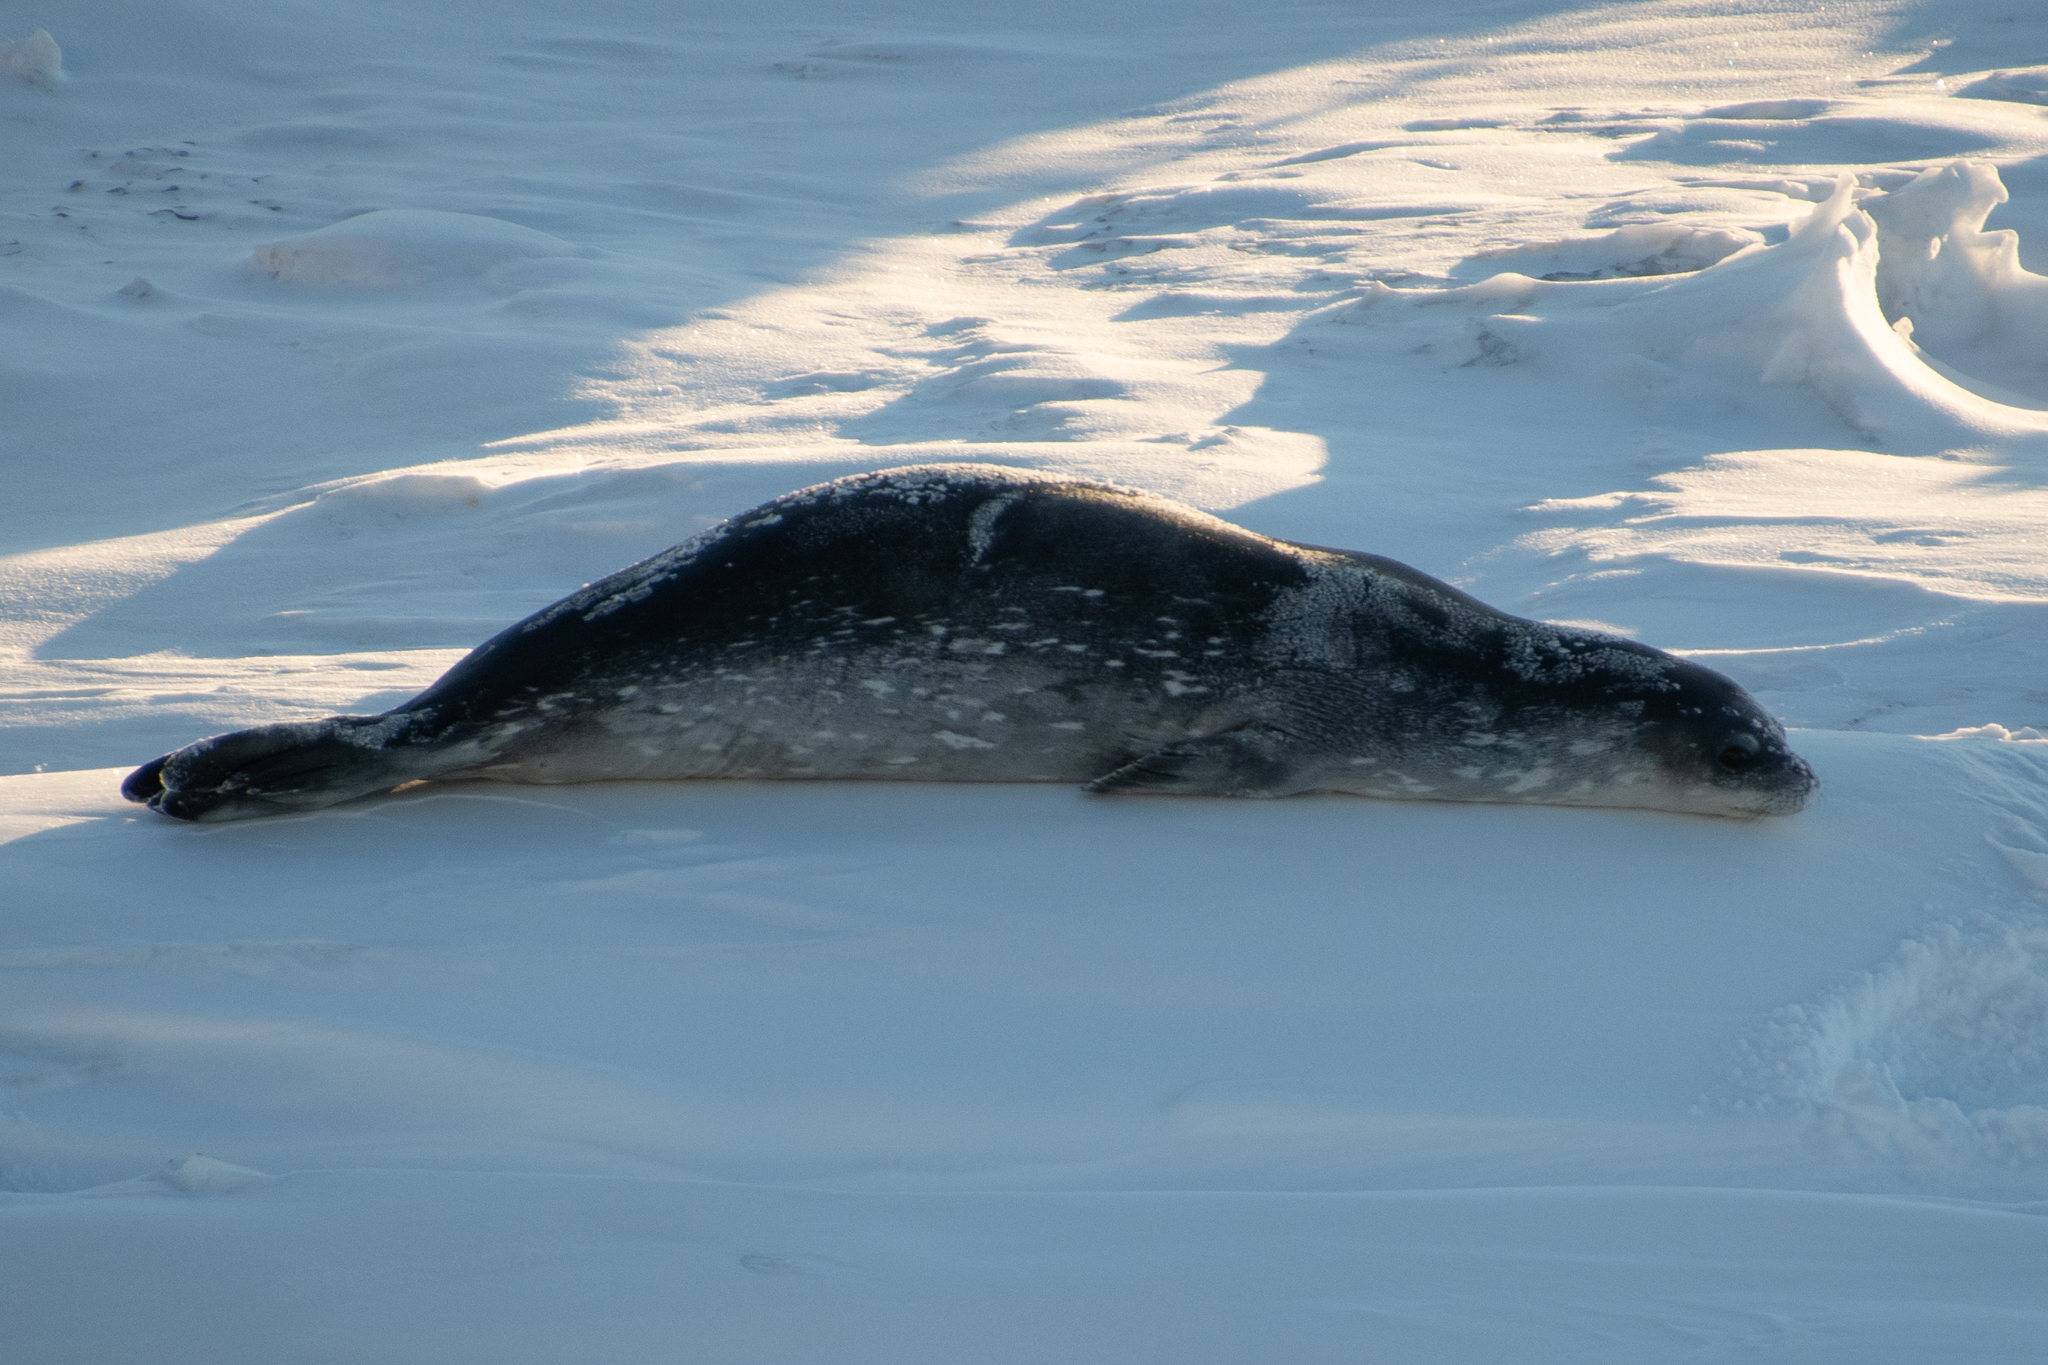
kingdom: Animalia
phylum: Chordata
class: Mammalia
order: Carnivora
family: Phocidae
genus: Leptonychotes
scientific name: Leptonychotes weddellii
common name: Weddell seal
